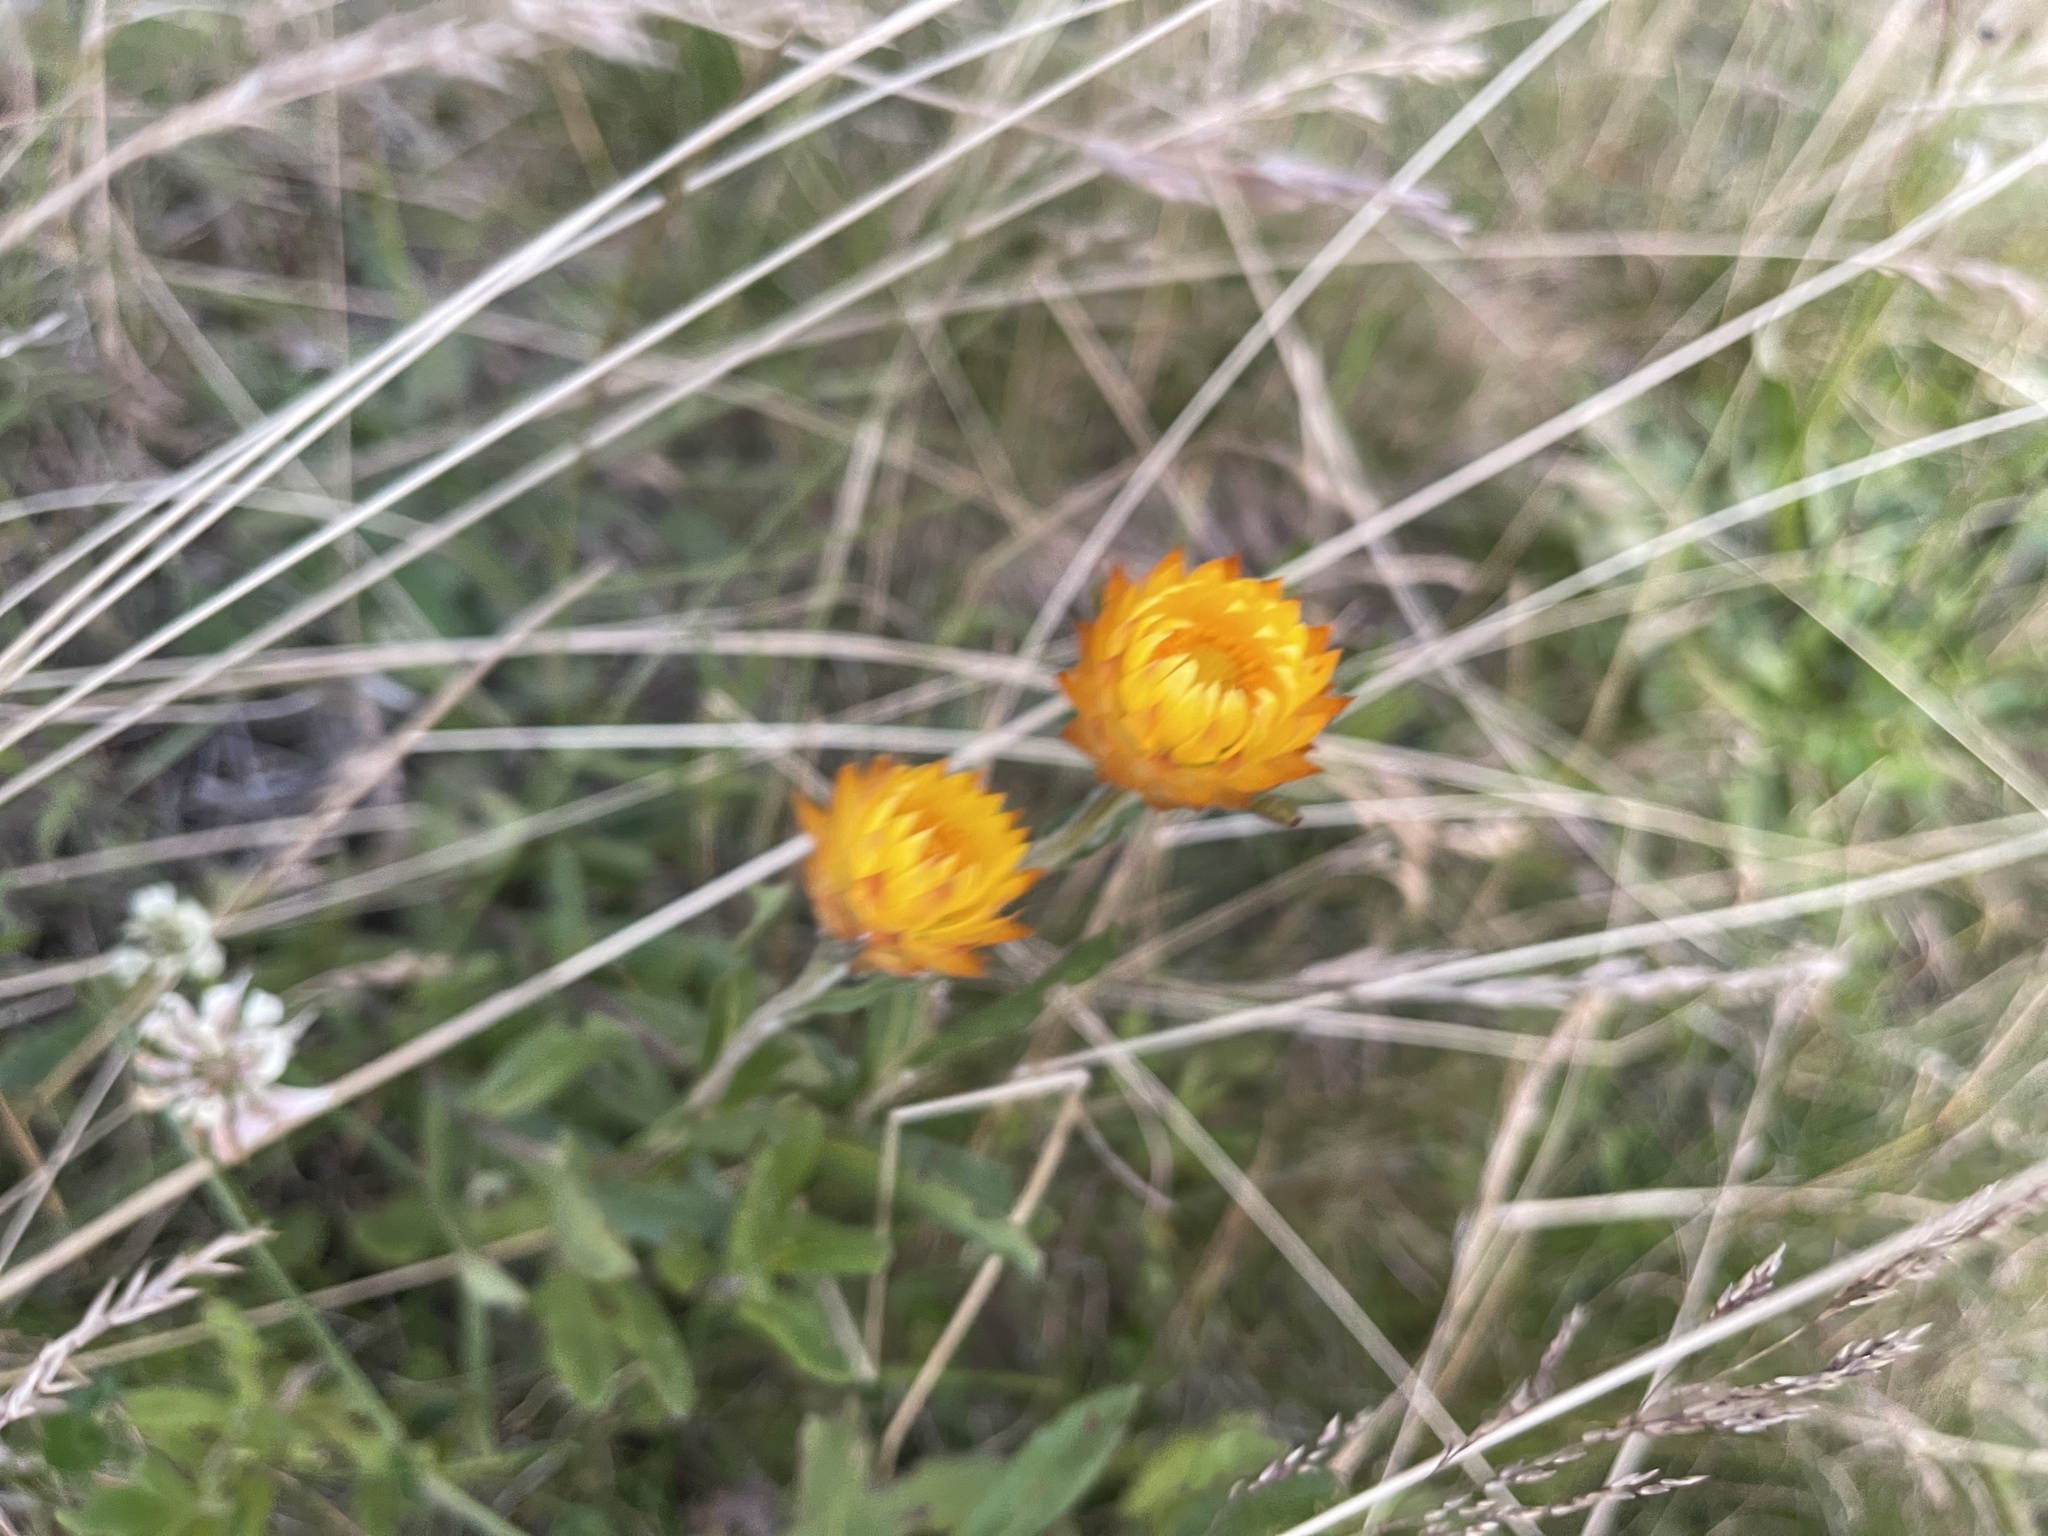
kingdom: Plantae
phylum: Tracheophyta
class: Magnoliopsida
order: Asterales
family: Asteraceae
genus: Xerochrysum
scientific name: Xerochrysum subundulatum
